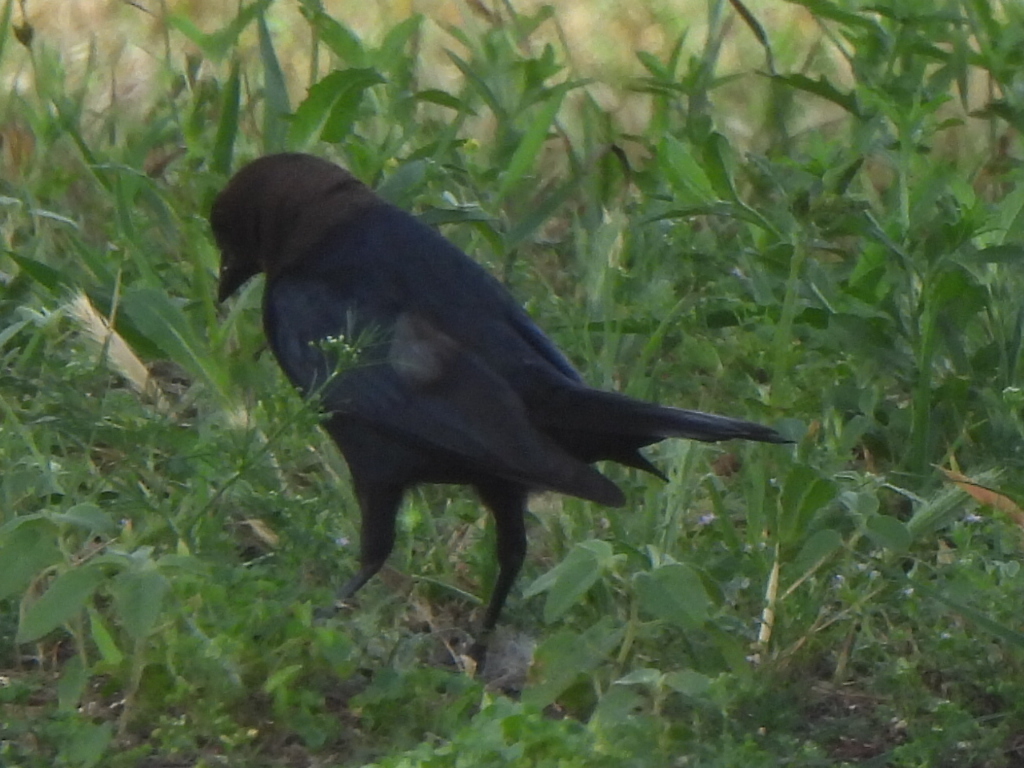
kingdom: Animalia
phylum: Chordata
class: Aves
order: Passeriformes
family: Icteridae
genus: Molothrus
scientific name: Molothrus ater
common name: Brown-headed cowbird
